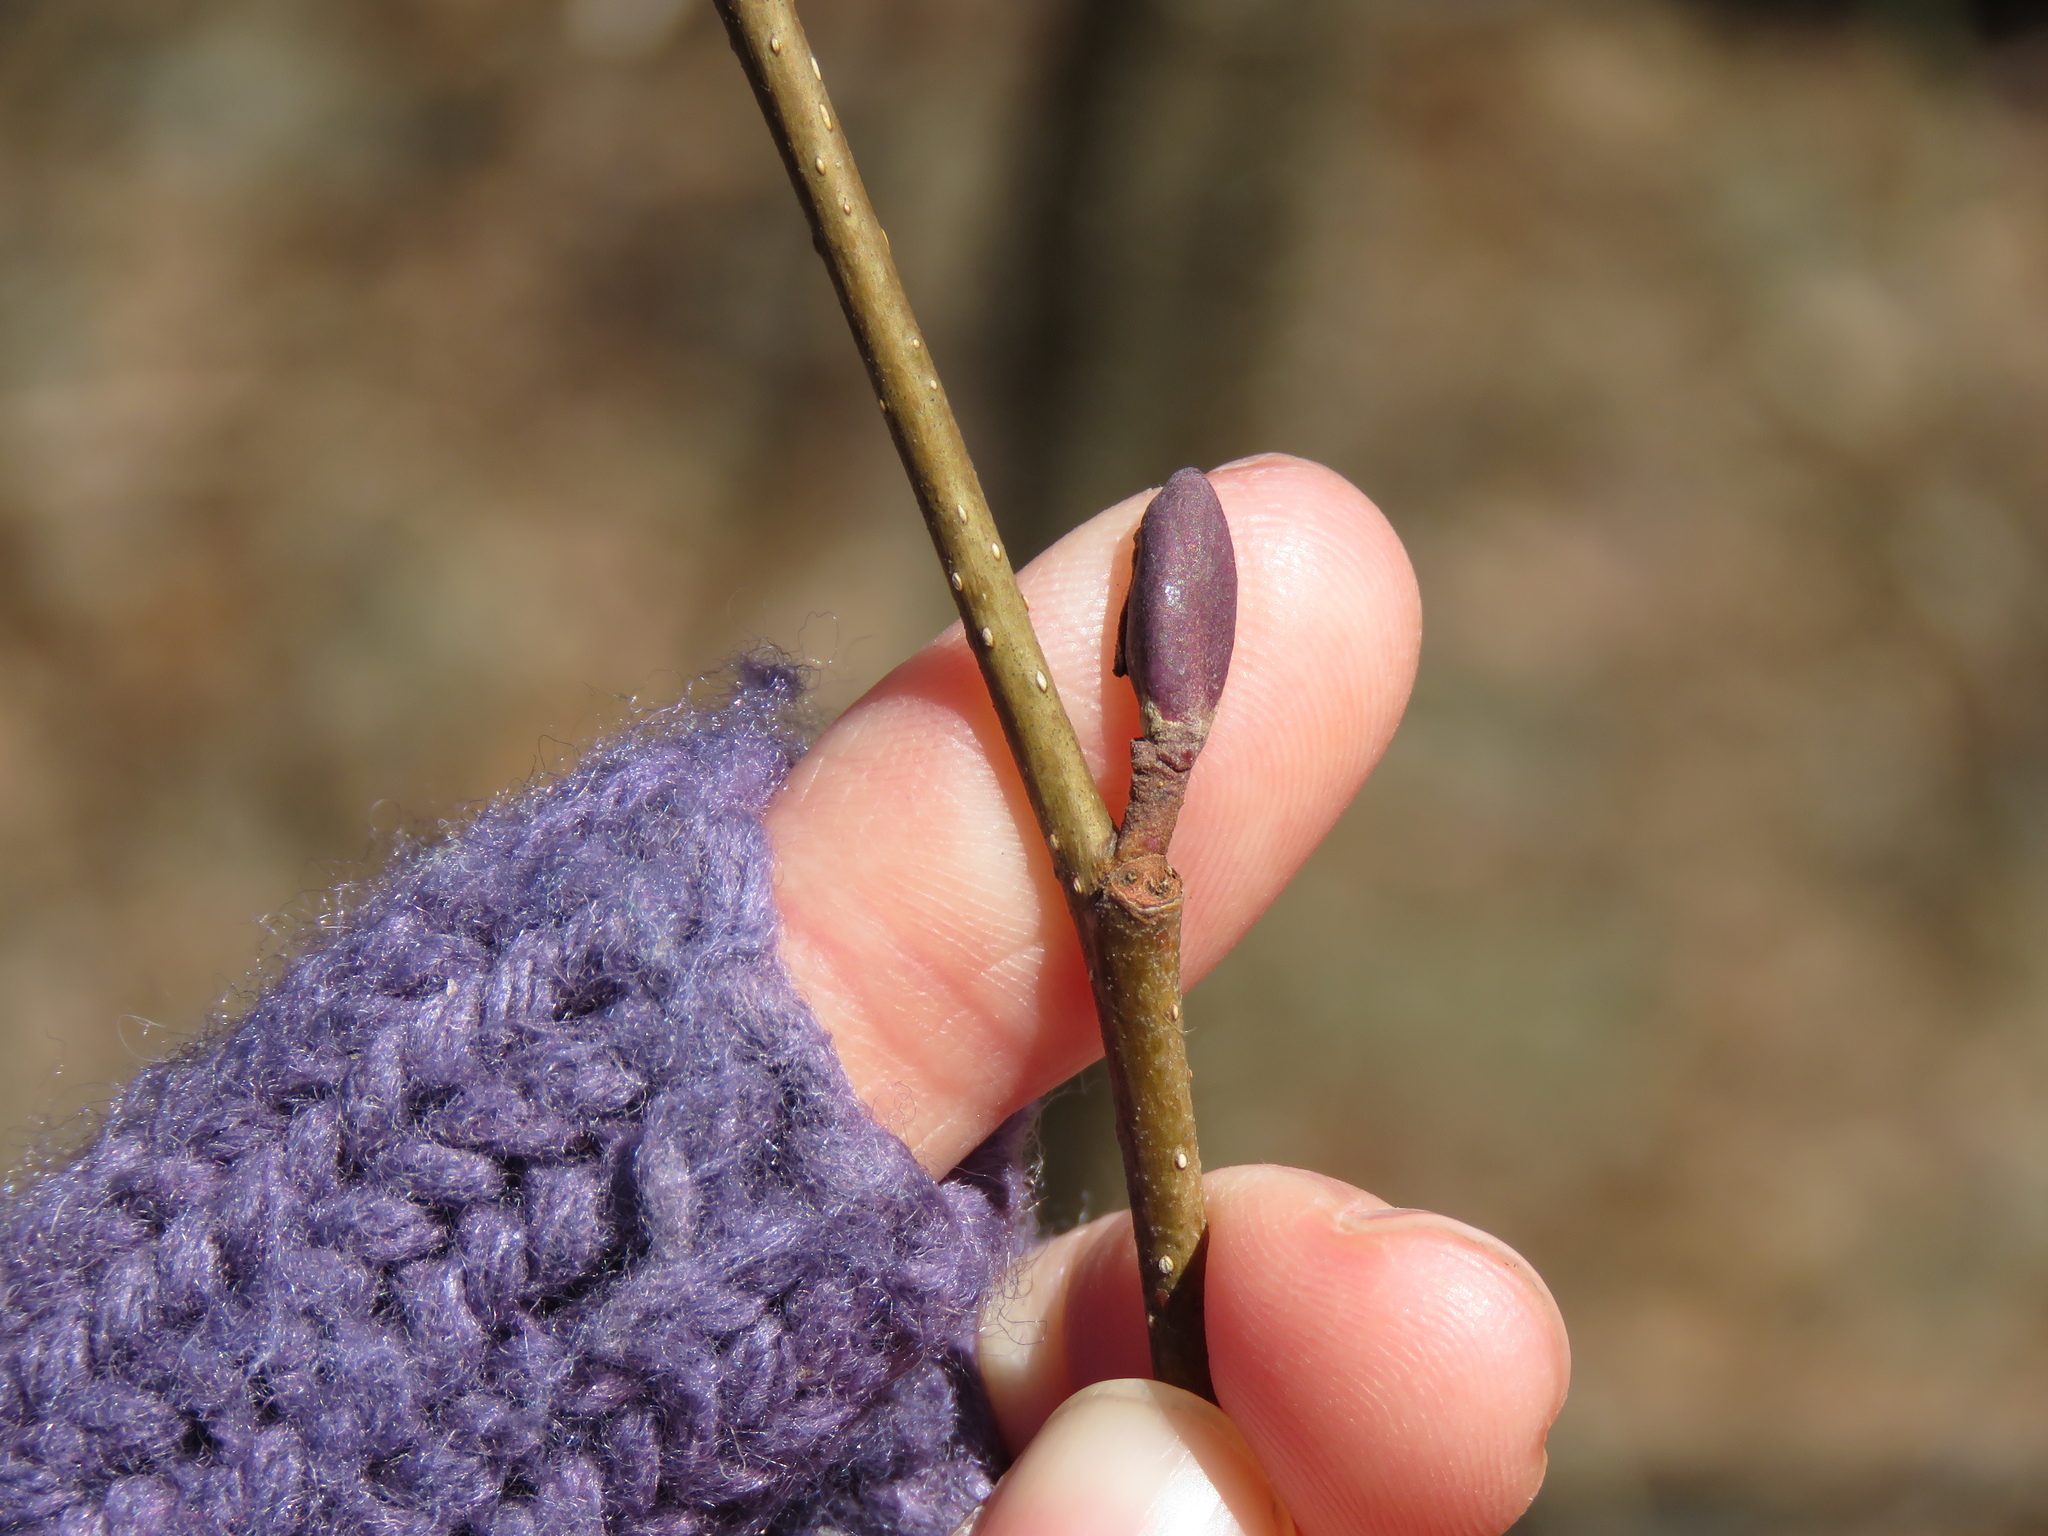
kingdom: Plantae
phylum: Tracheophyta
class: Magnoliopsida
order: Fagales
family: Betulaceae
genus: Alnus
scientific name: Alnus glutinosa
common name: Black alder
